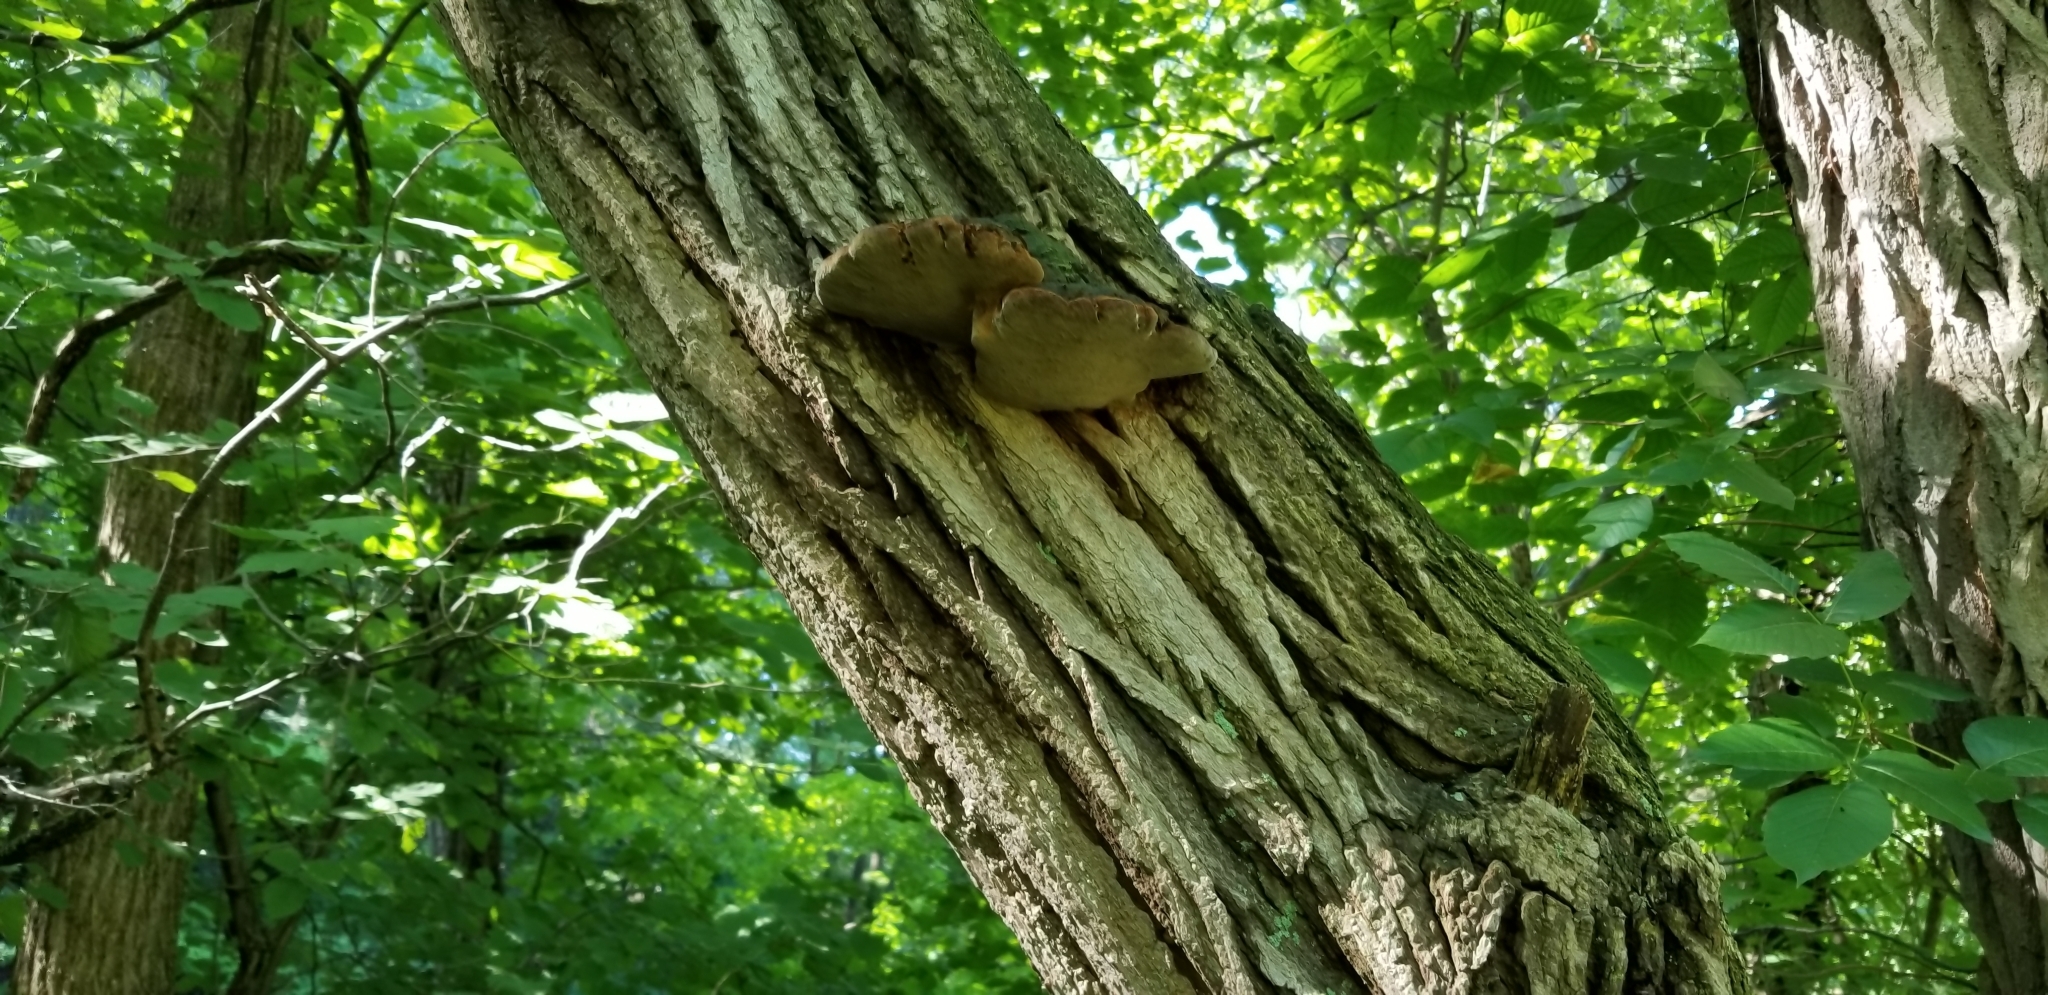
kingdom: Fungi
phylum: Basidiomycota
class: Agaricomycetes
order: Hymenochaetales
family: Hymenochaetaceae
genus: Phellinus
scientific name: Phellinus robiniae
